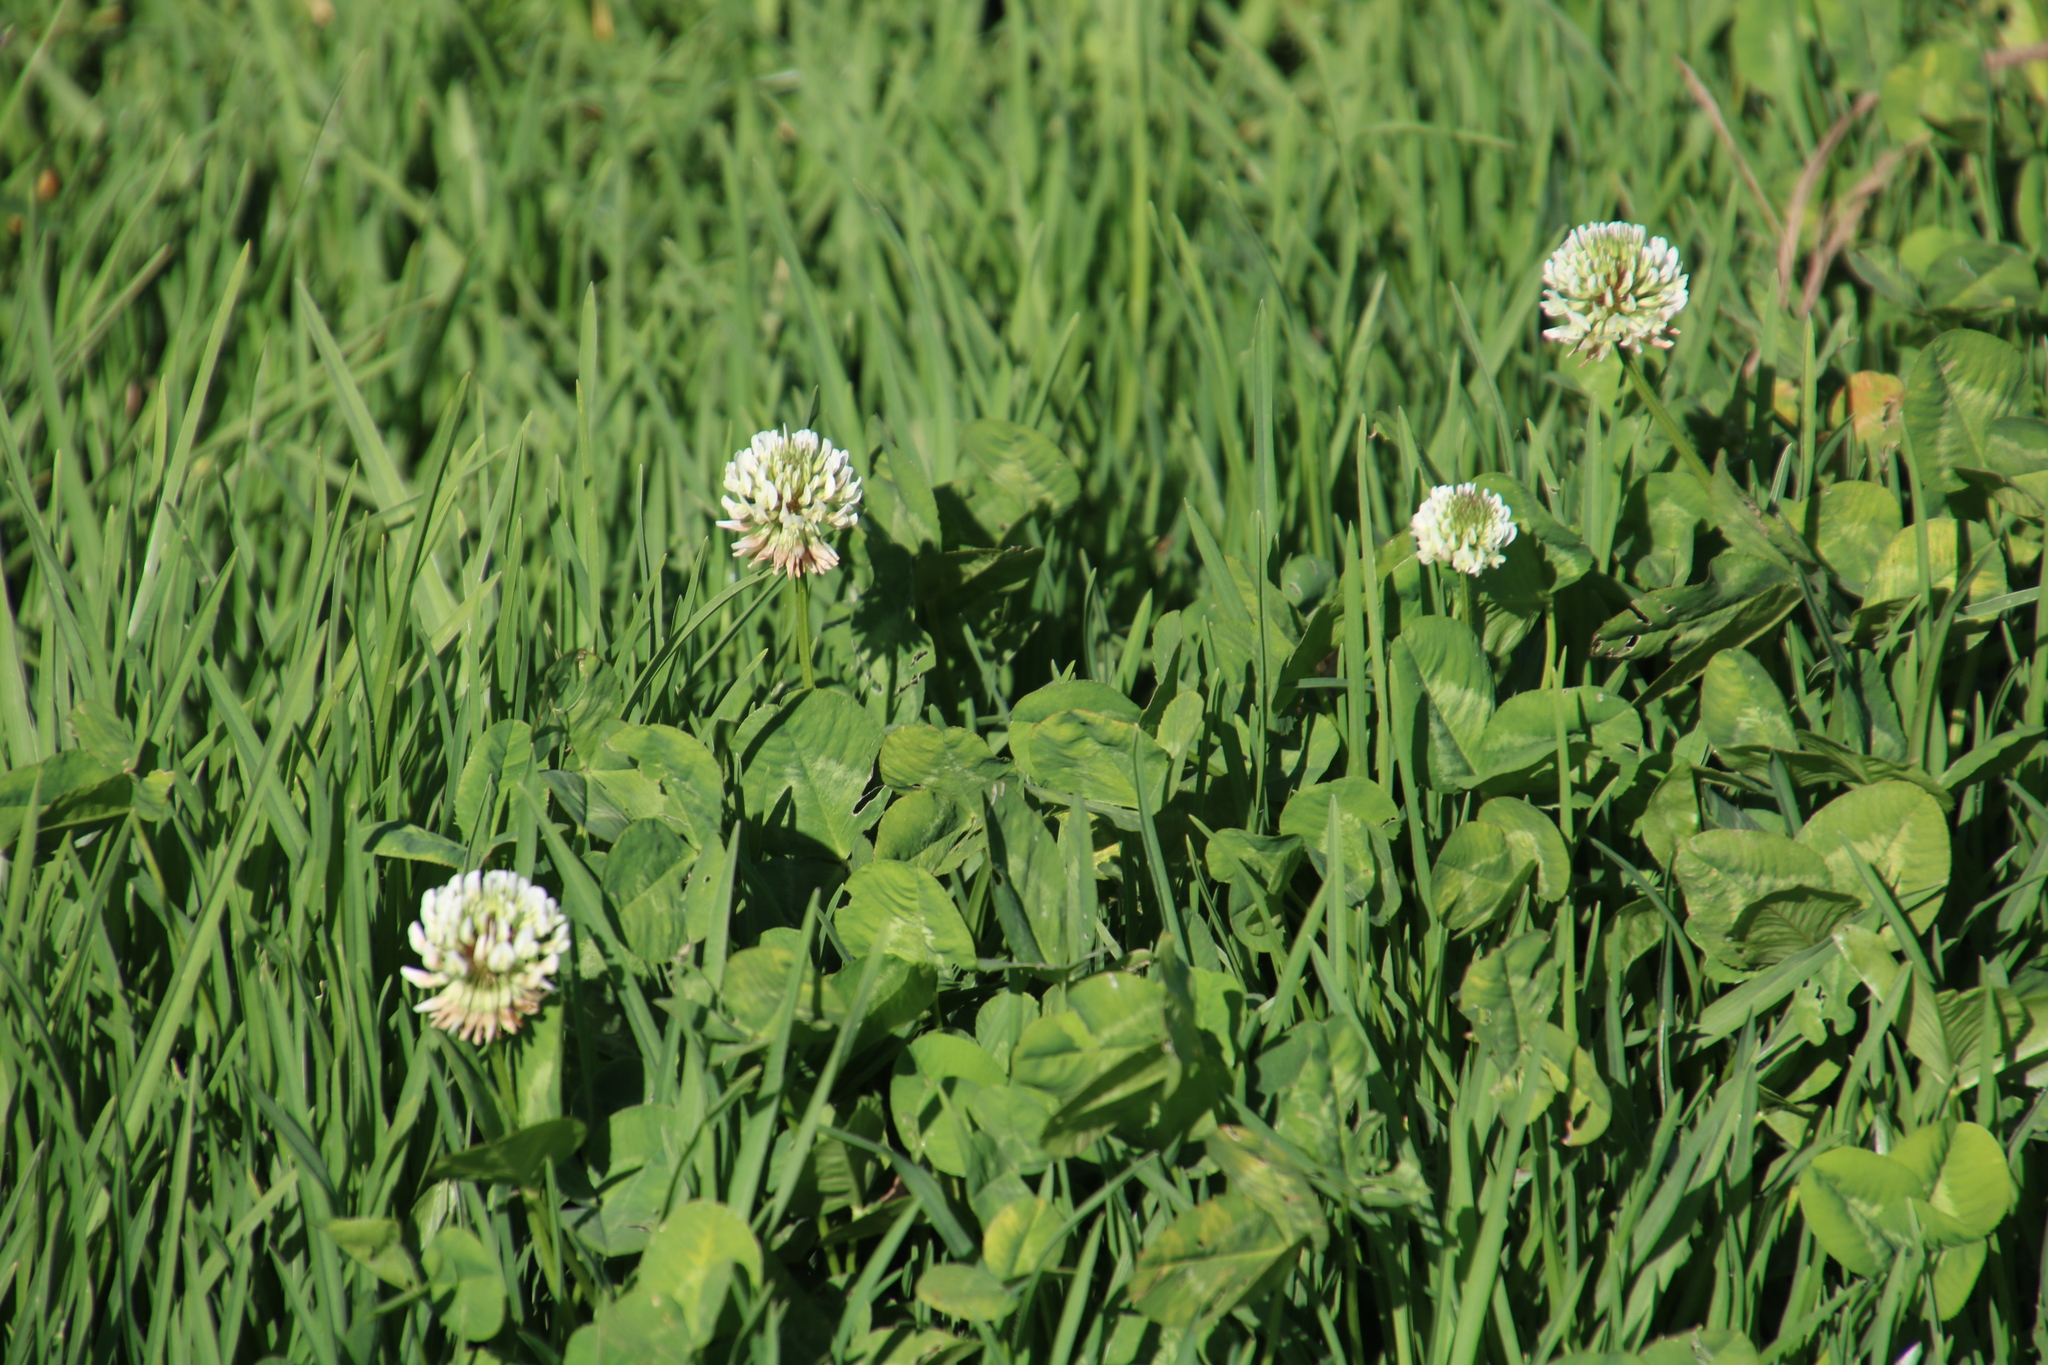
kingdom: Plantae
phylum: Tracheophyta
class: Magnoliopsida
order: Fabales
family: Fabaceae
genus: Trifolium
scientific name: Trifolium repens
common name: White clover
